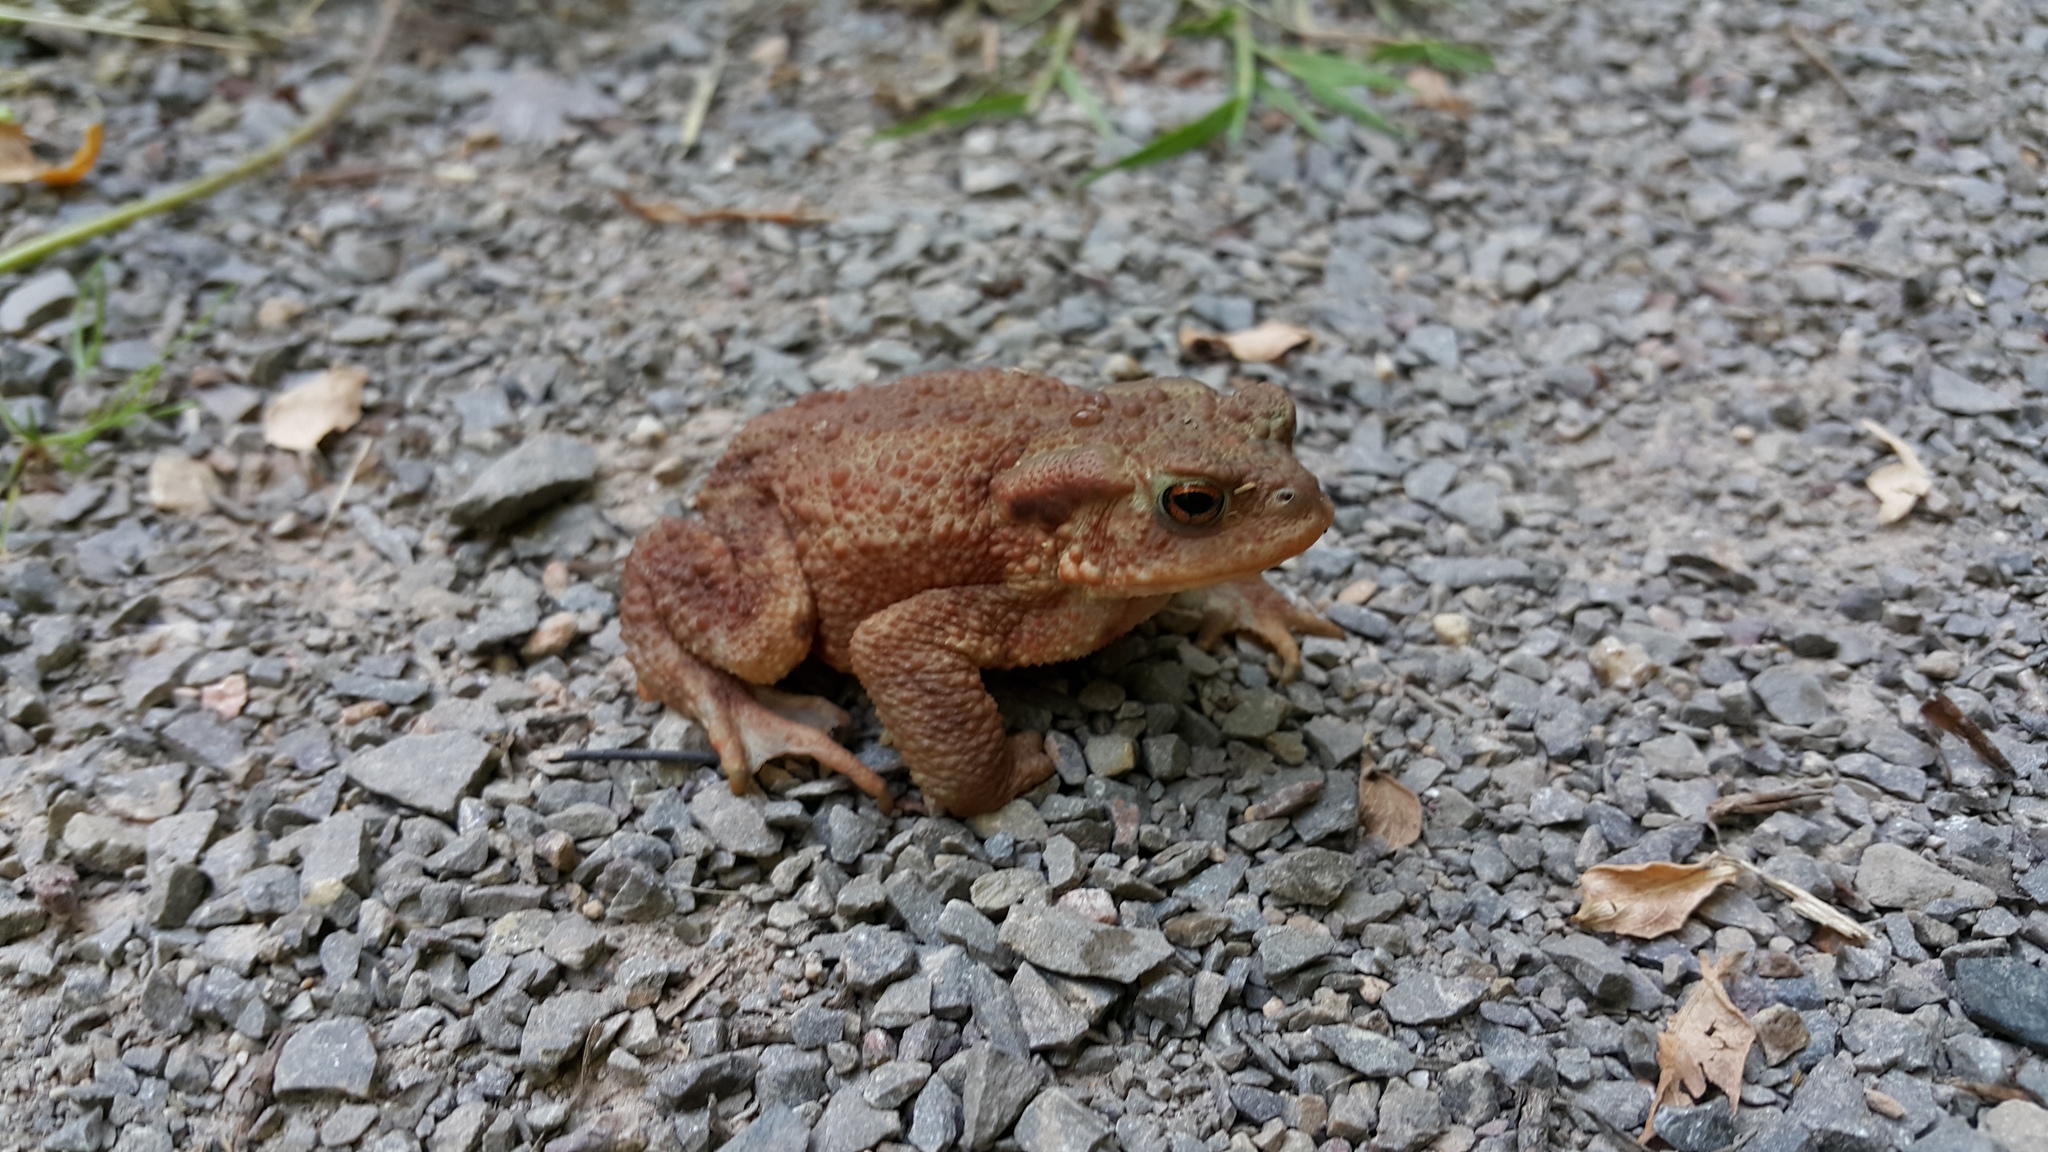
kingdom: Animalia
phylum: Chordata
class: Amphibia
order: Anura
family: Bufonidae
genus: Bufo
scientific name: Bufo bufo
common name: Common toad
